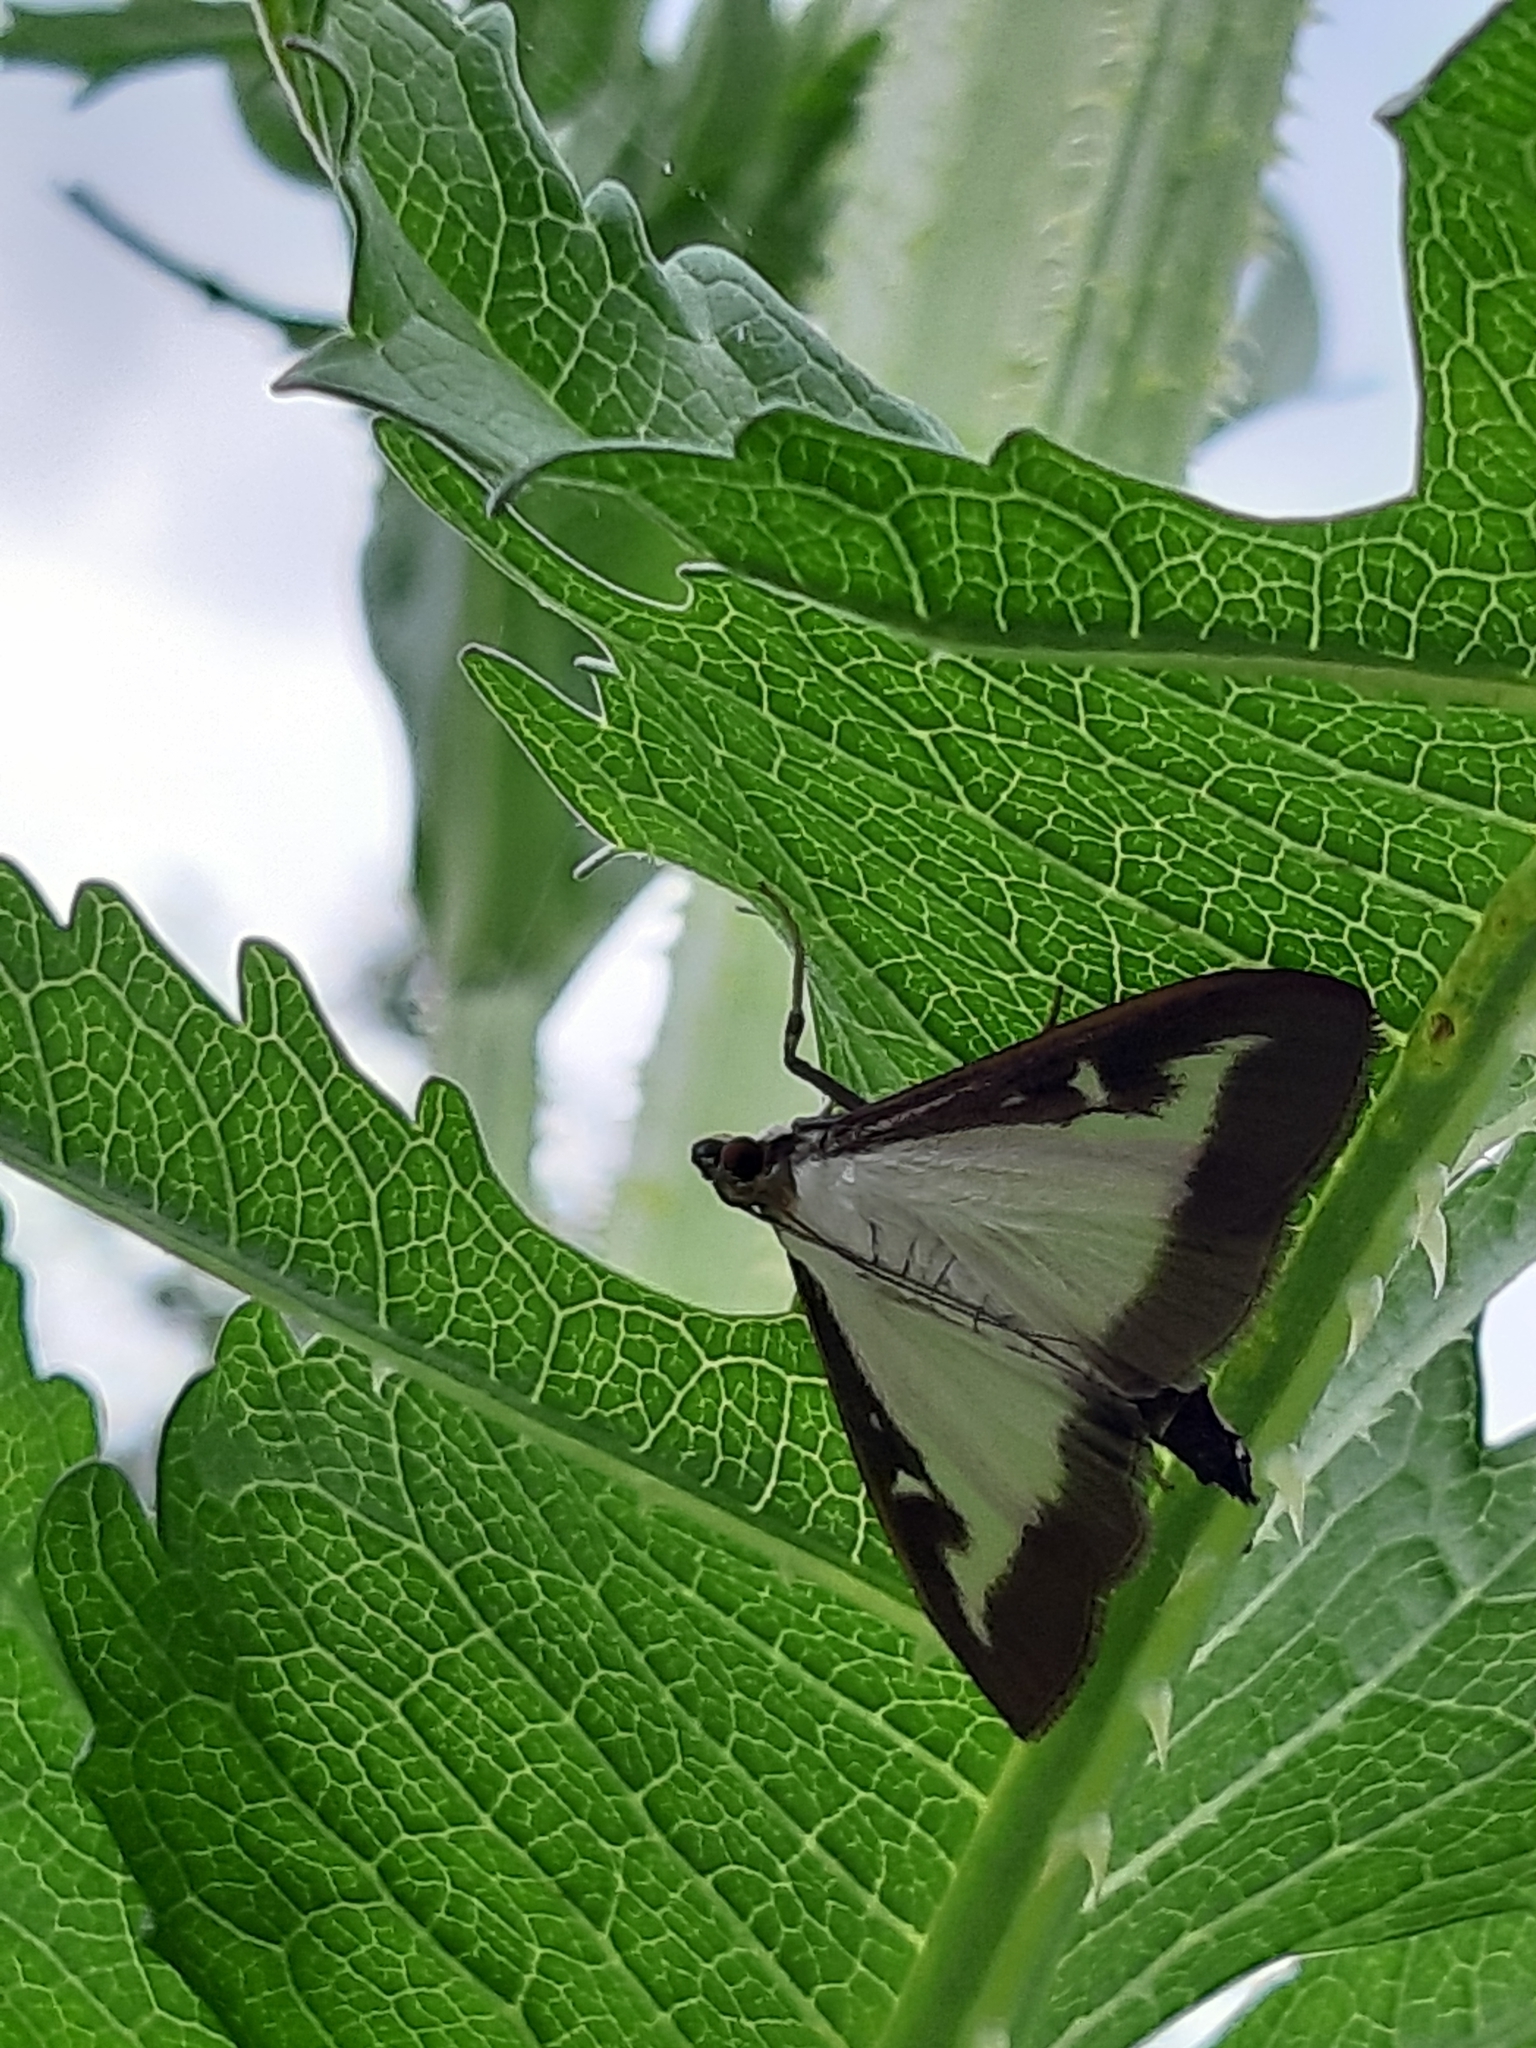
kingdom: Animalia
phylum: Arthropoda
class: Insecta
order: Lepidoptera
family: Crambidae
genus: Cydalima
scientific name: Cydalima perspectalis
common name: Box tree moth
